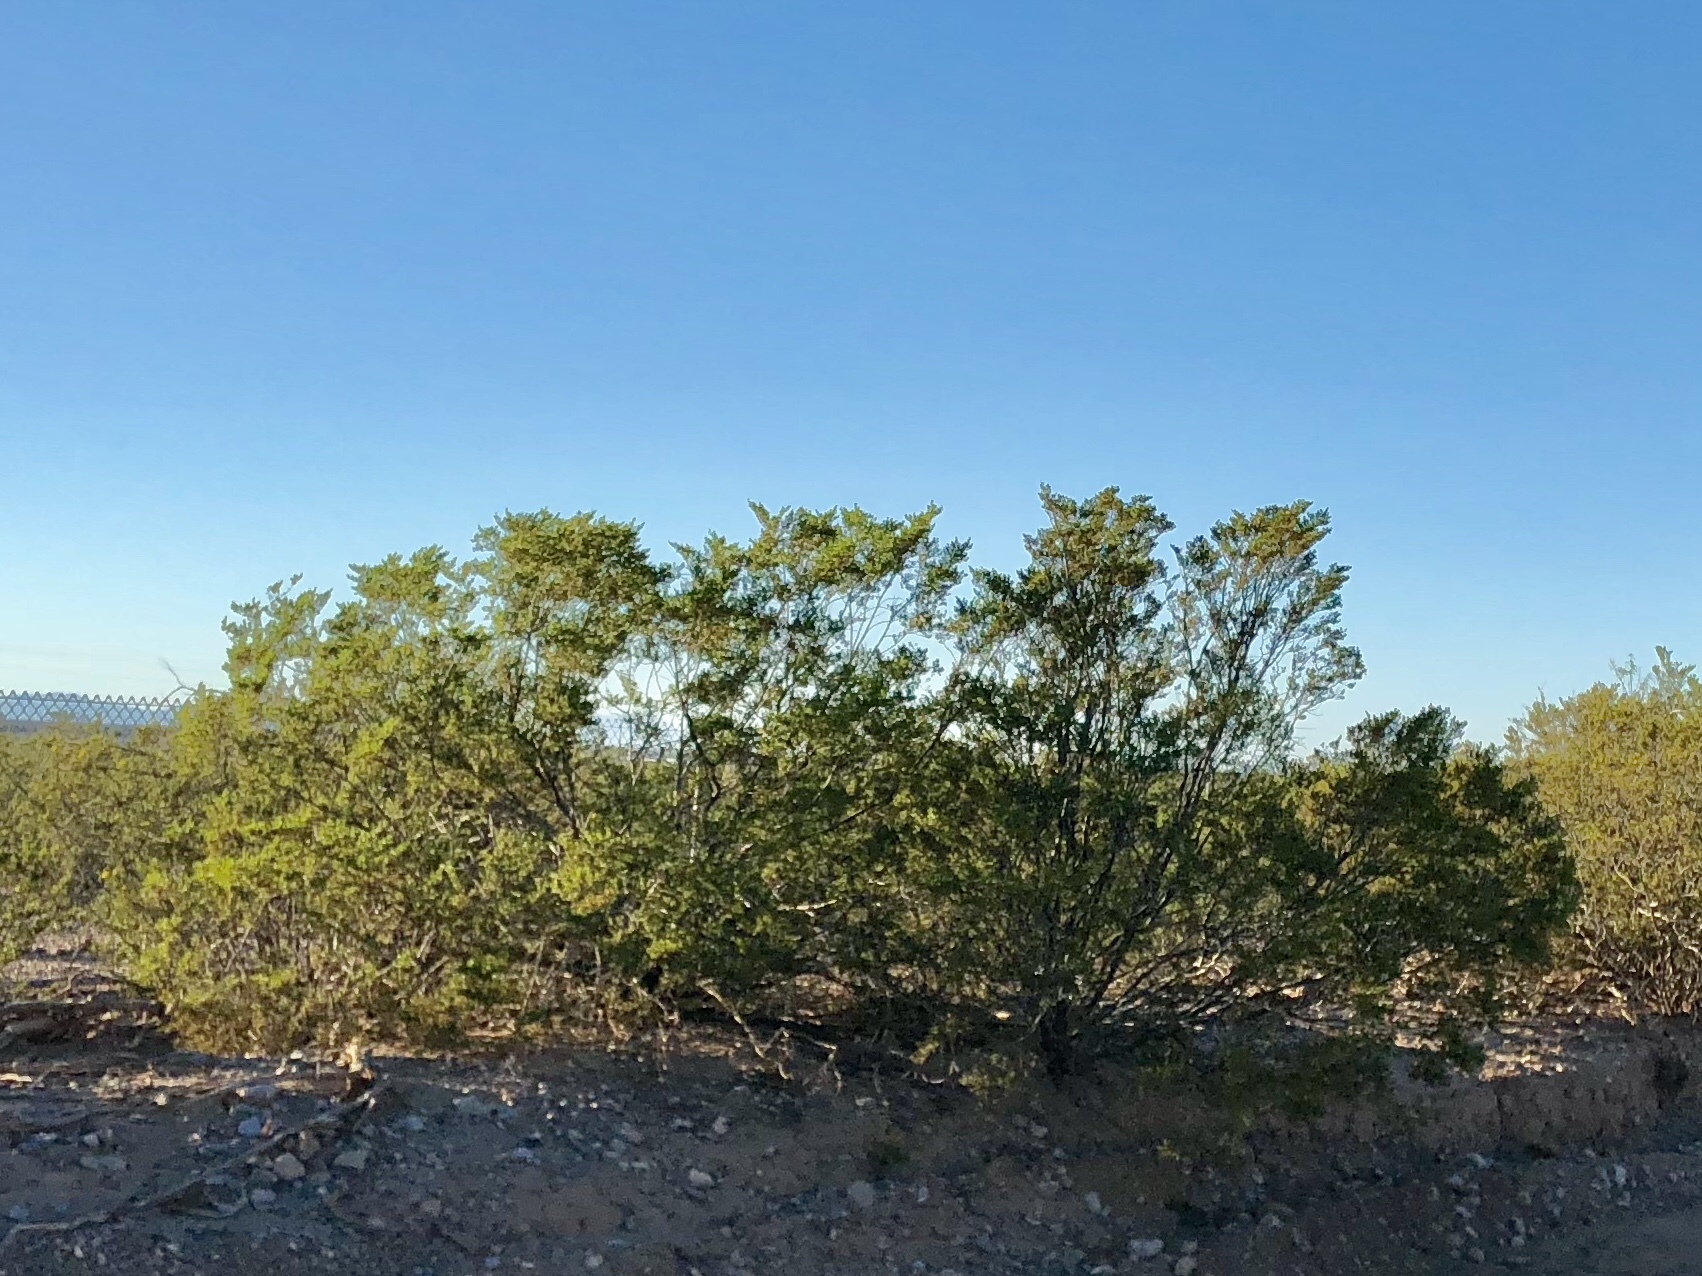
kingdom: Plantae
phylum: Tracheophyta
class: Magnoliopsida
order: Zygophyllales
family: Zygophyllaceae
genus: Larrea
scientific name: Larrea tridentata
